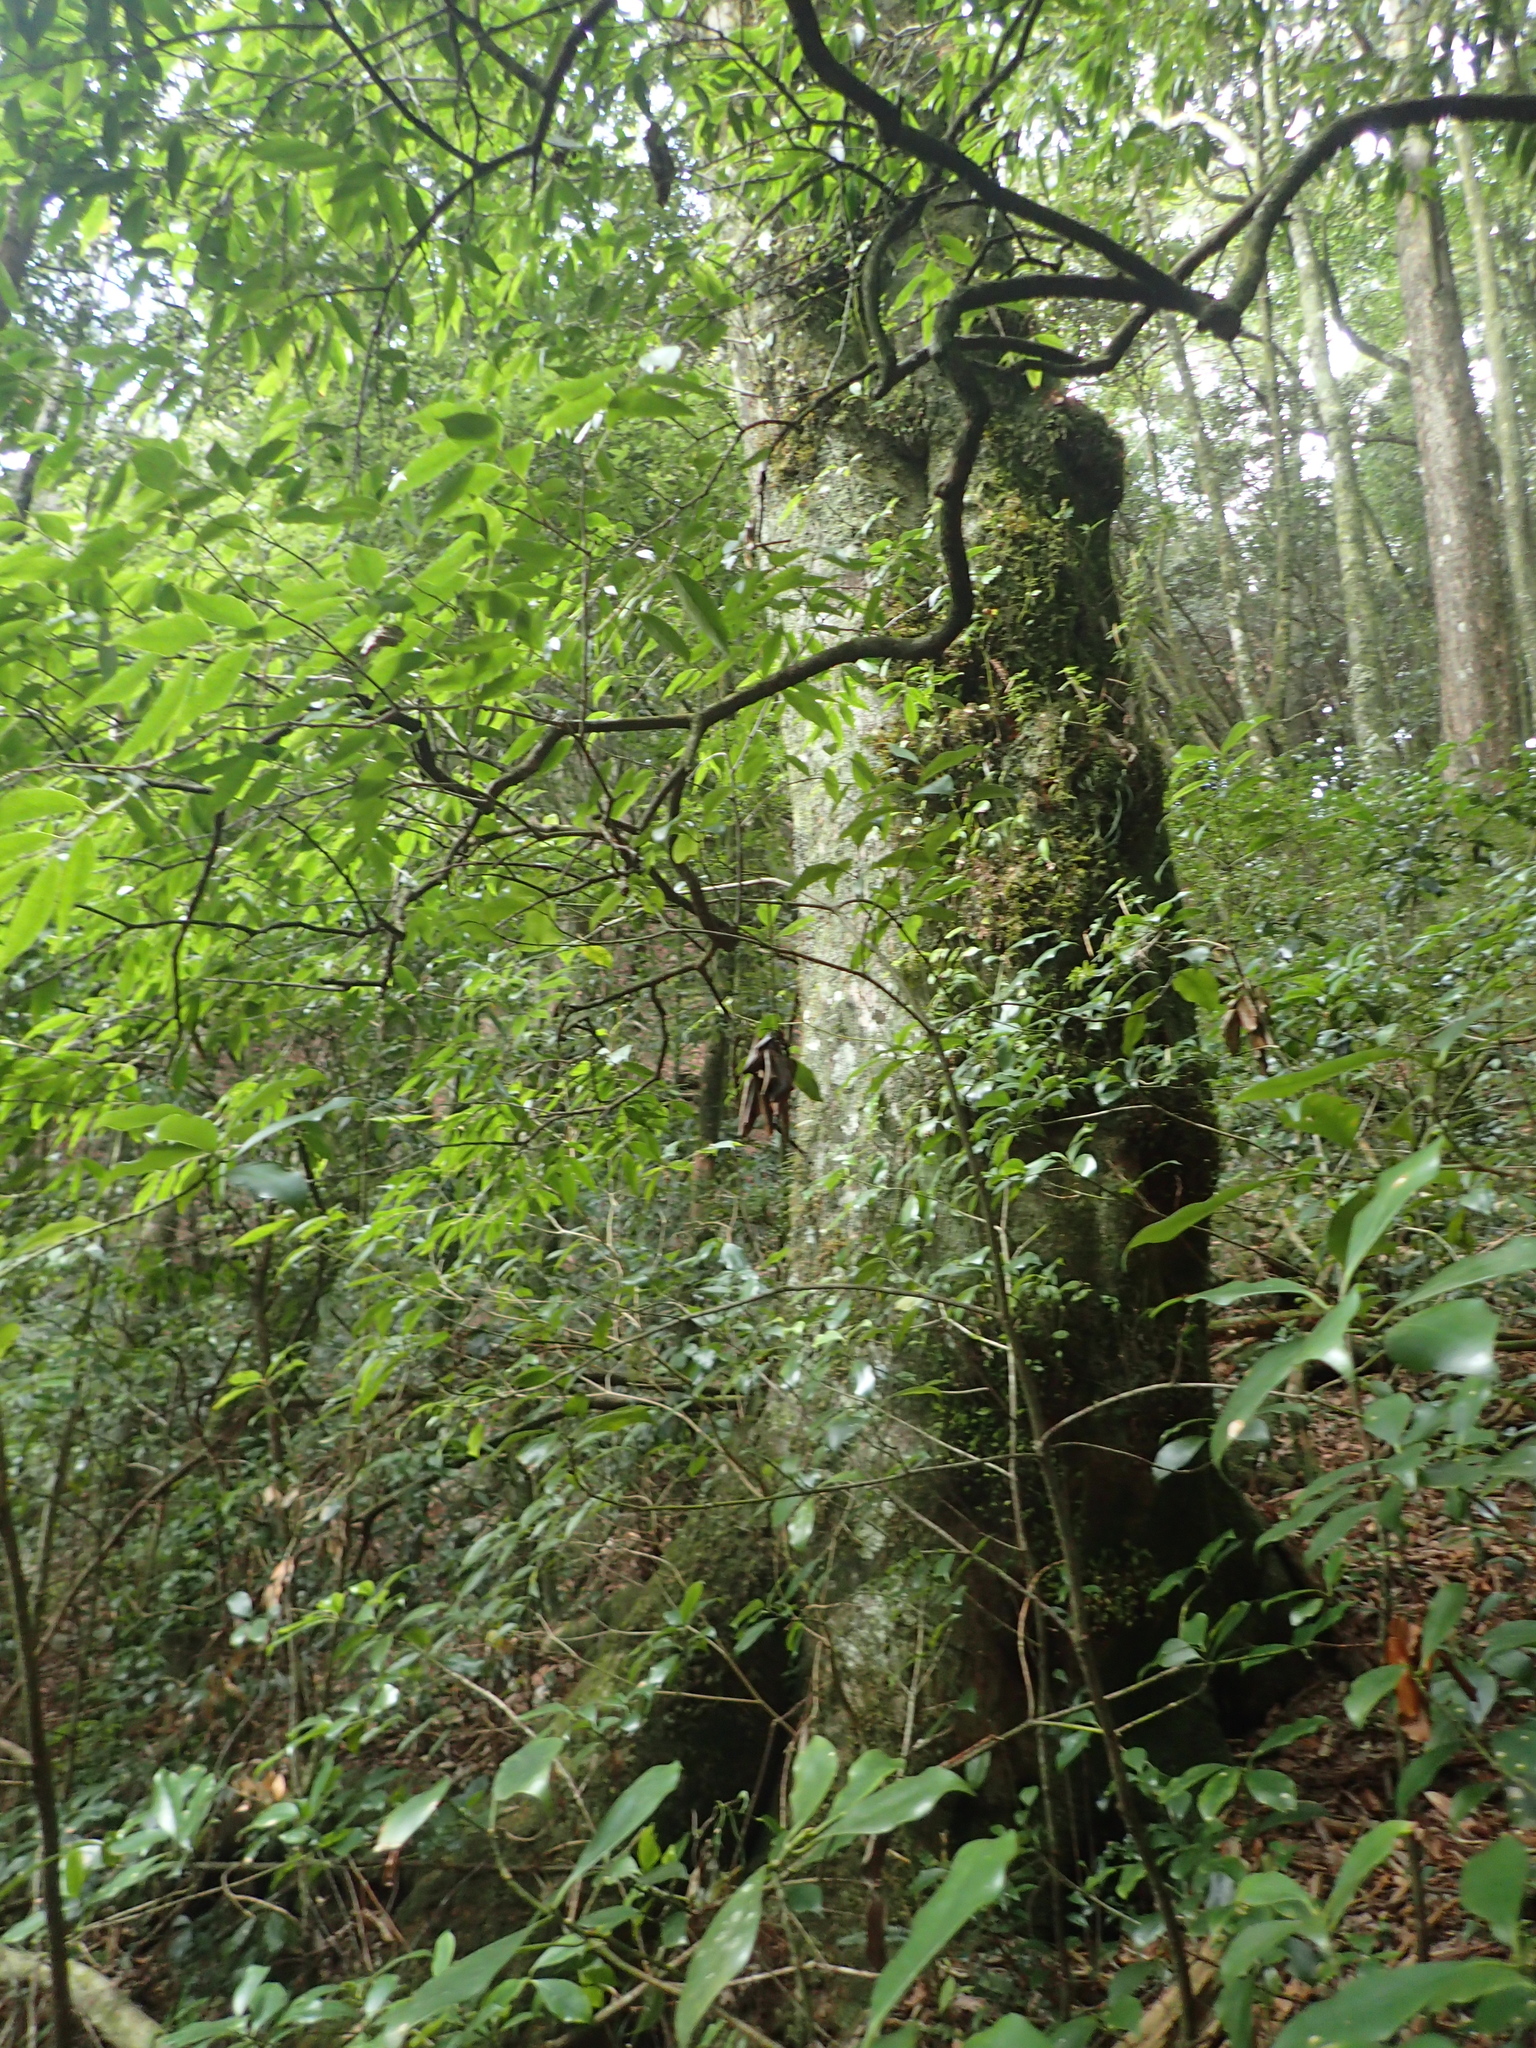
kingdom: Plantae
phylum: Tracheophyta
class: Magnoliopsida
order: Trochodendrales
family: Trochodendraceae
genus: Trochodendron
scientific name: Trochodendron aralioides
